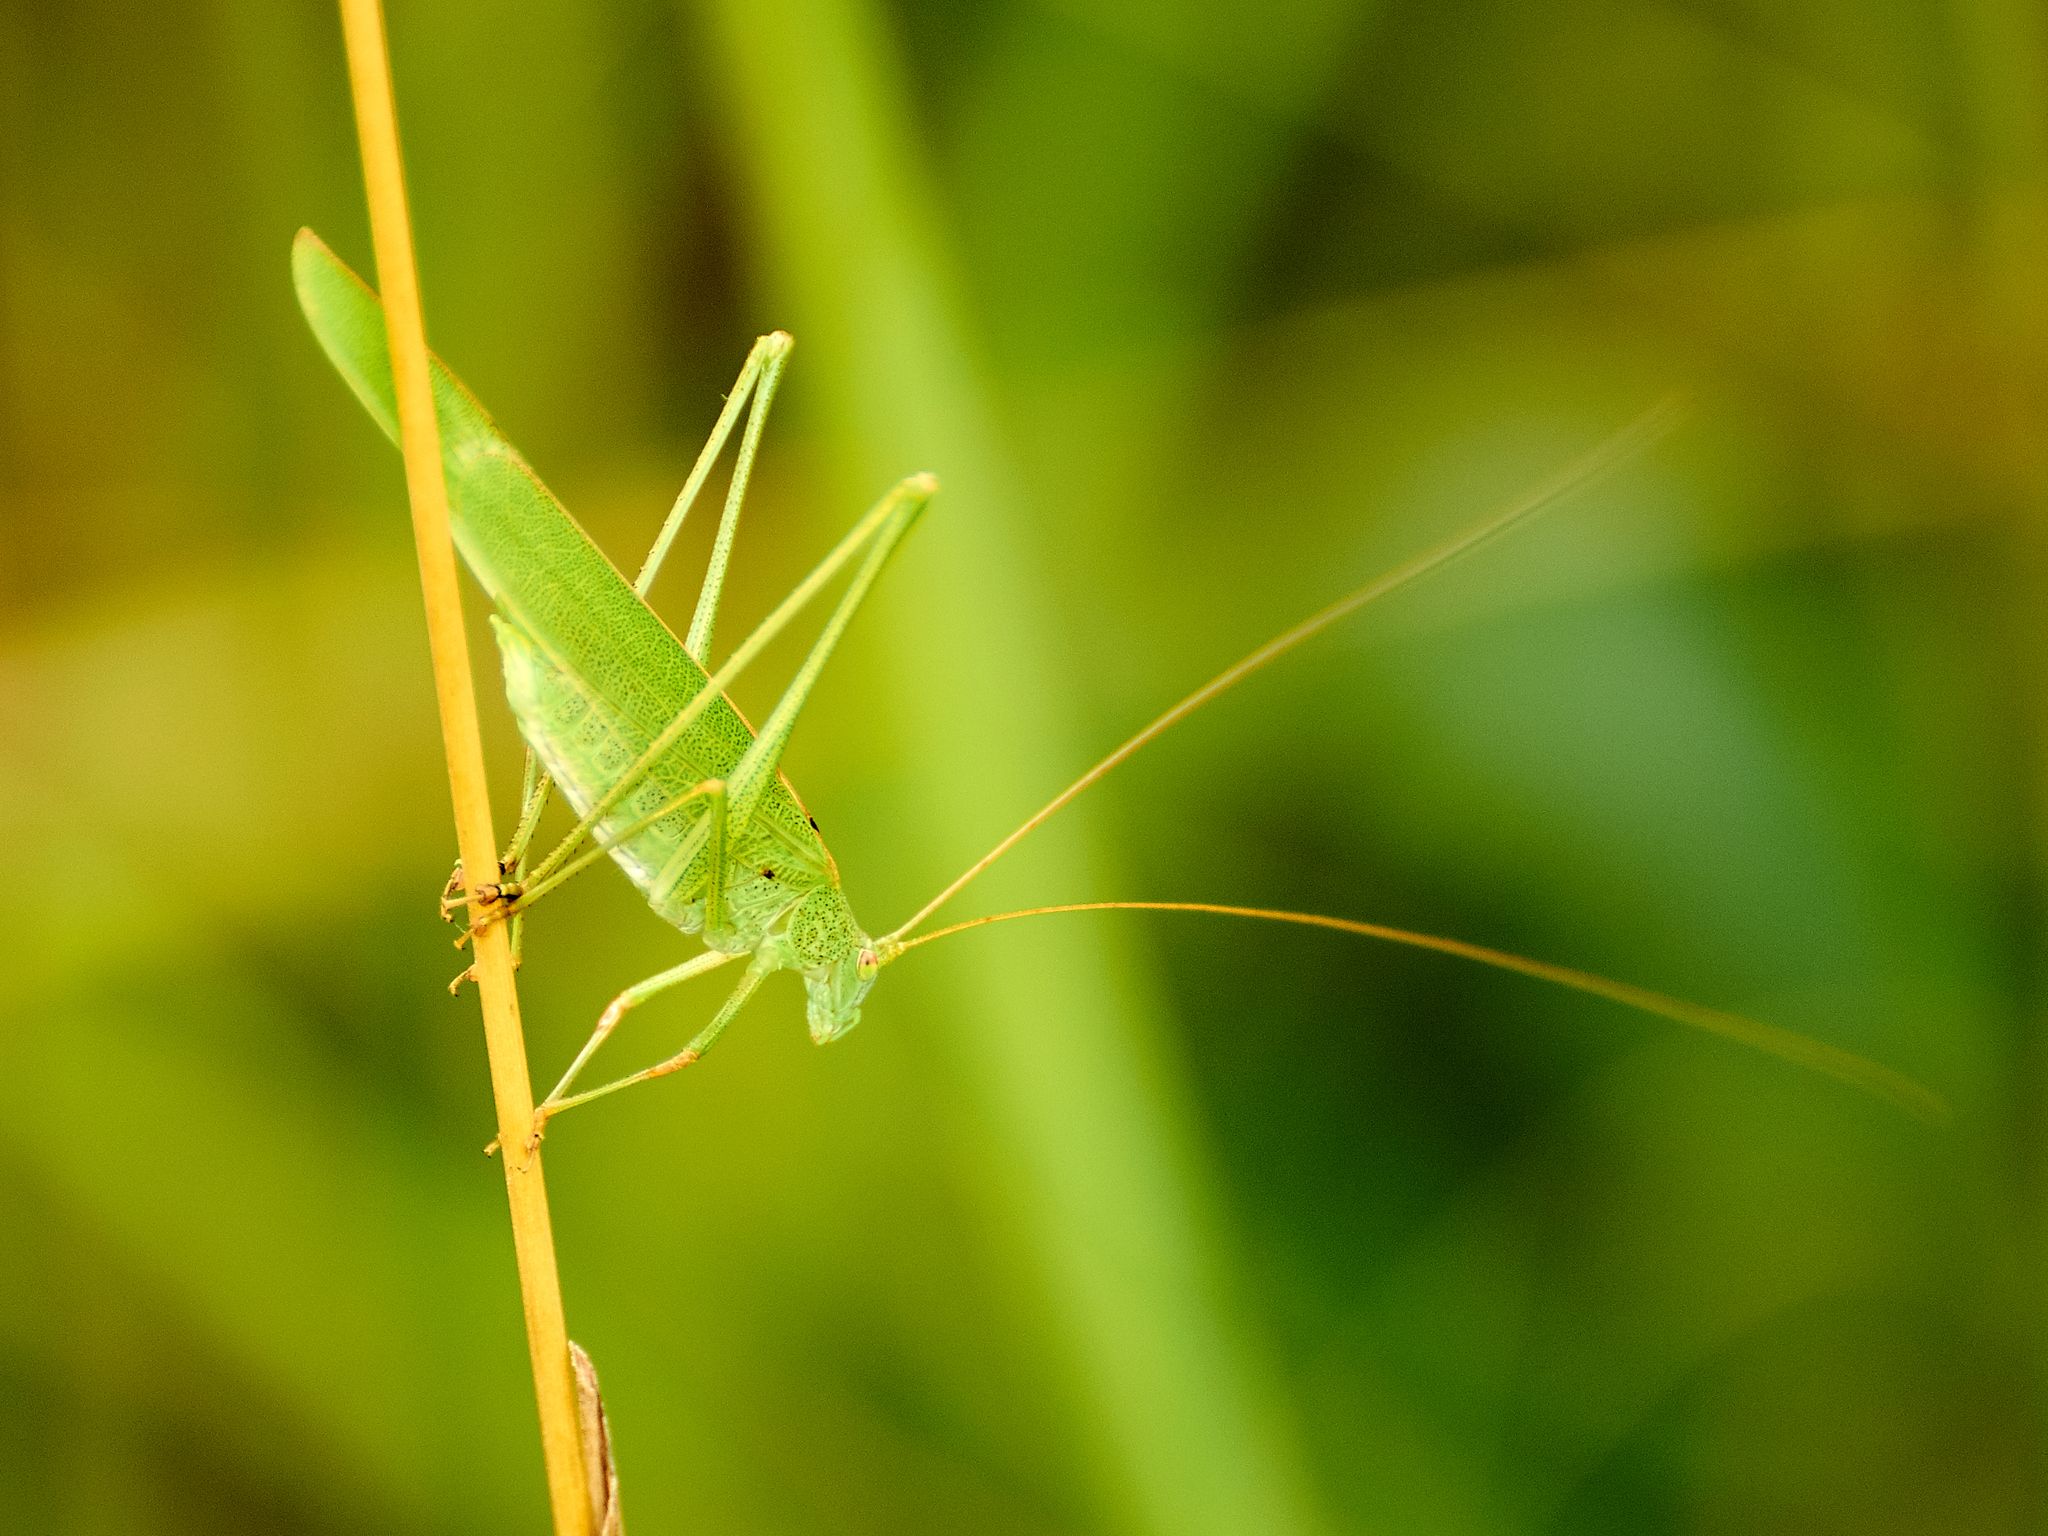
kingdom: Animalia
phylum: Arthropoda
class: Insecta
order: Orthoptera
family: Tettigoniidae
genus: Phaneroptera
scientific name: Phaneroptera falcata
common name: Sickle-bearing bush-cricket
